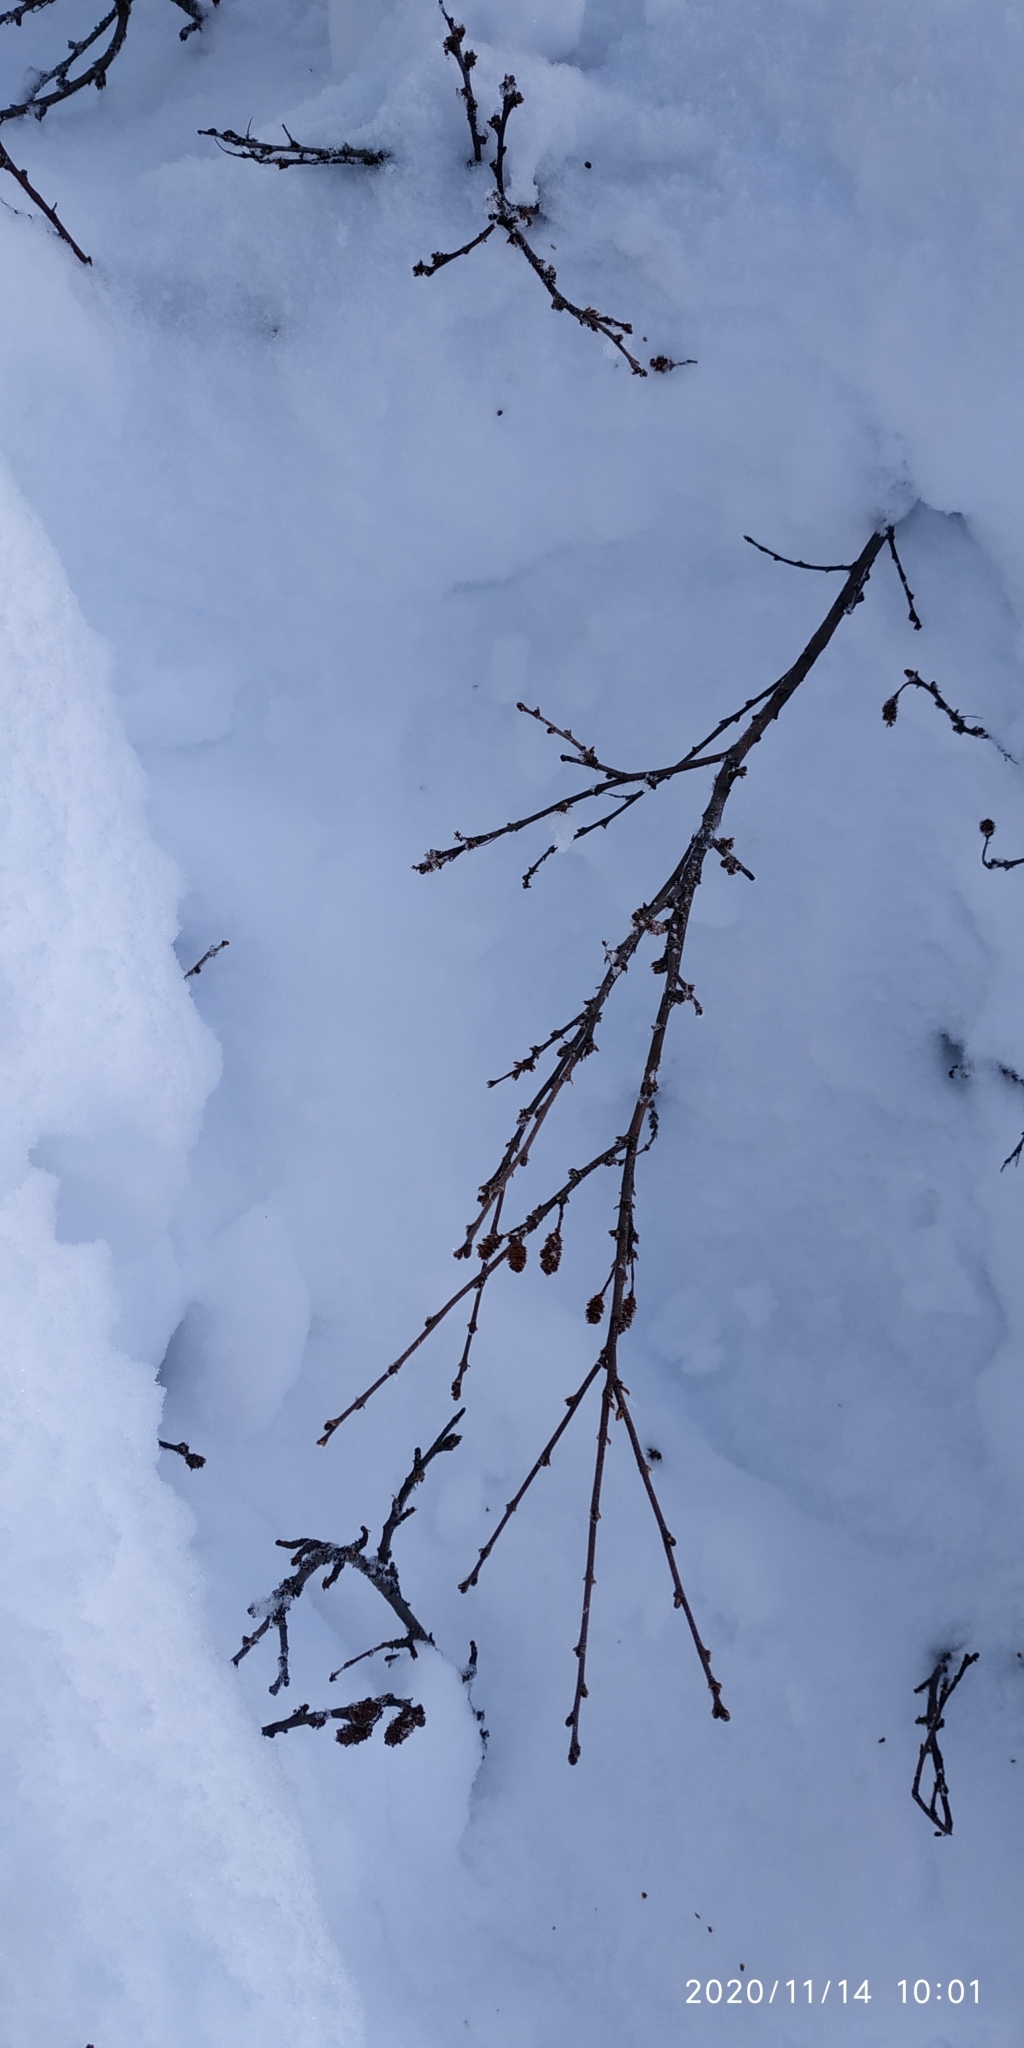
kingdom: Plantae
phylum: Tracheophyta
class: Magnoliopsida
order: Fagales
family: Betulaceae
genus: Betula
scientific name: Betula nana
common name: Arctic dwarf birch
